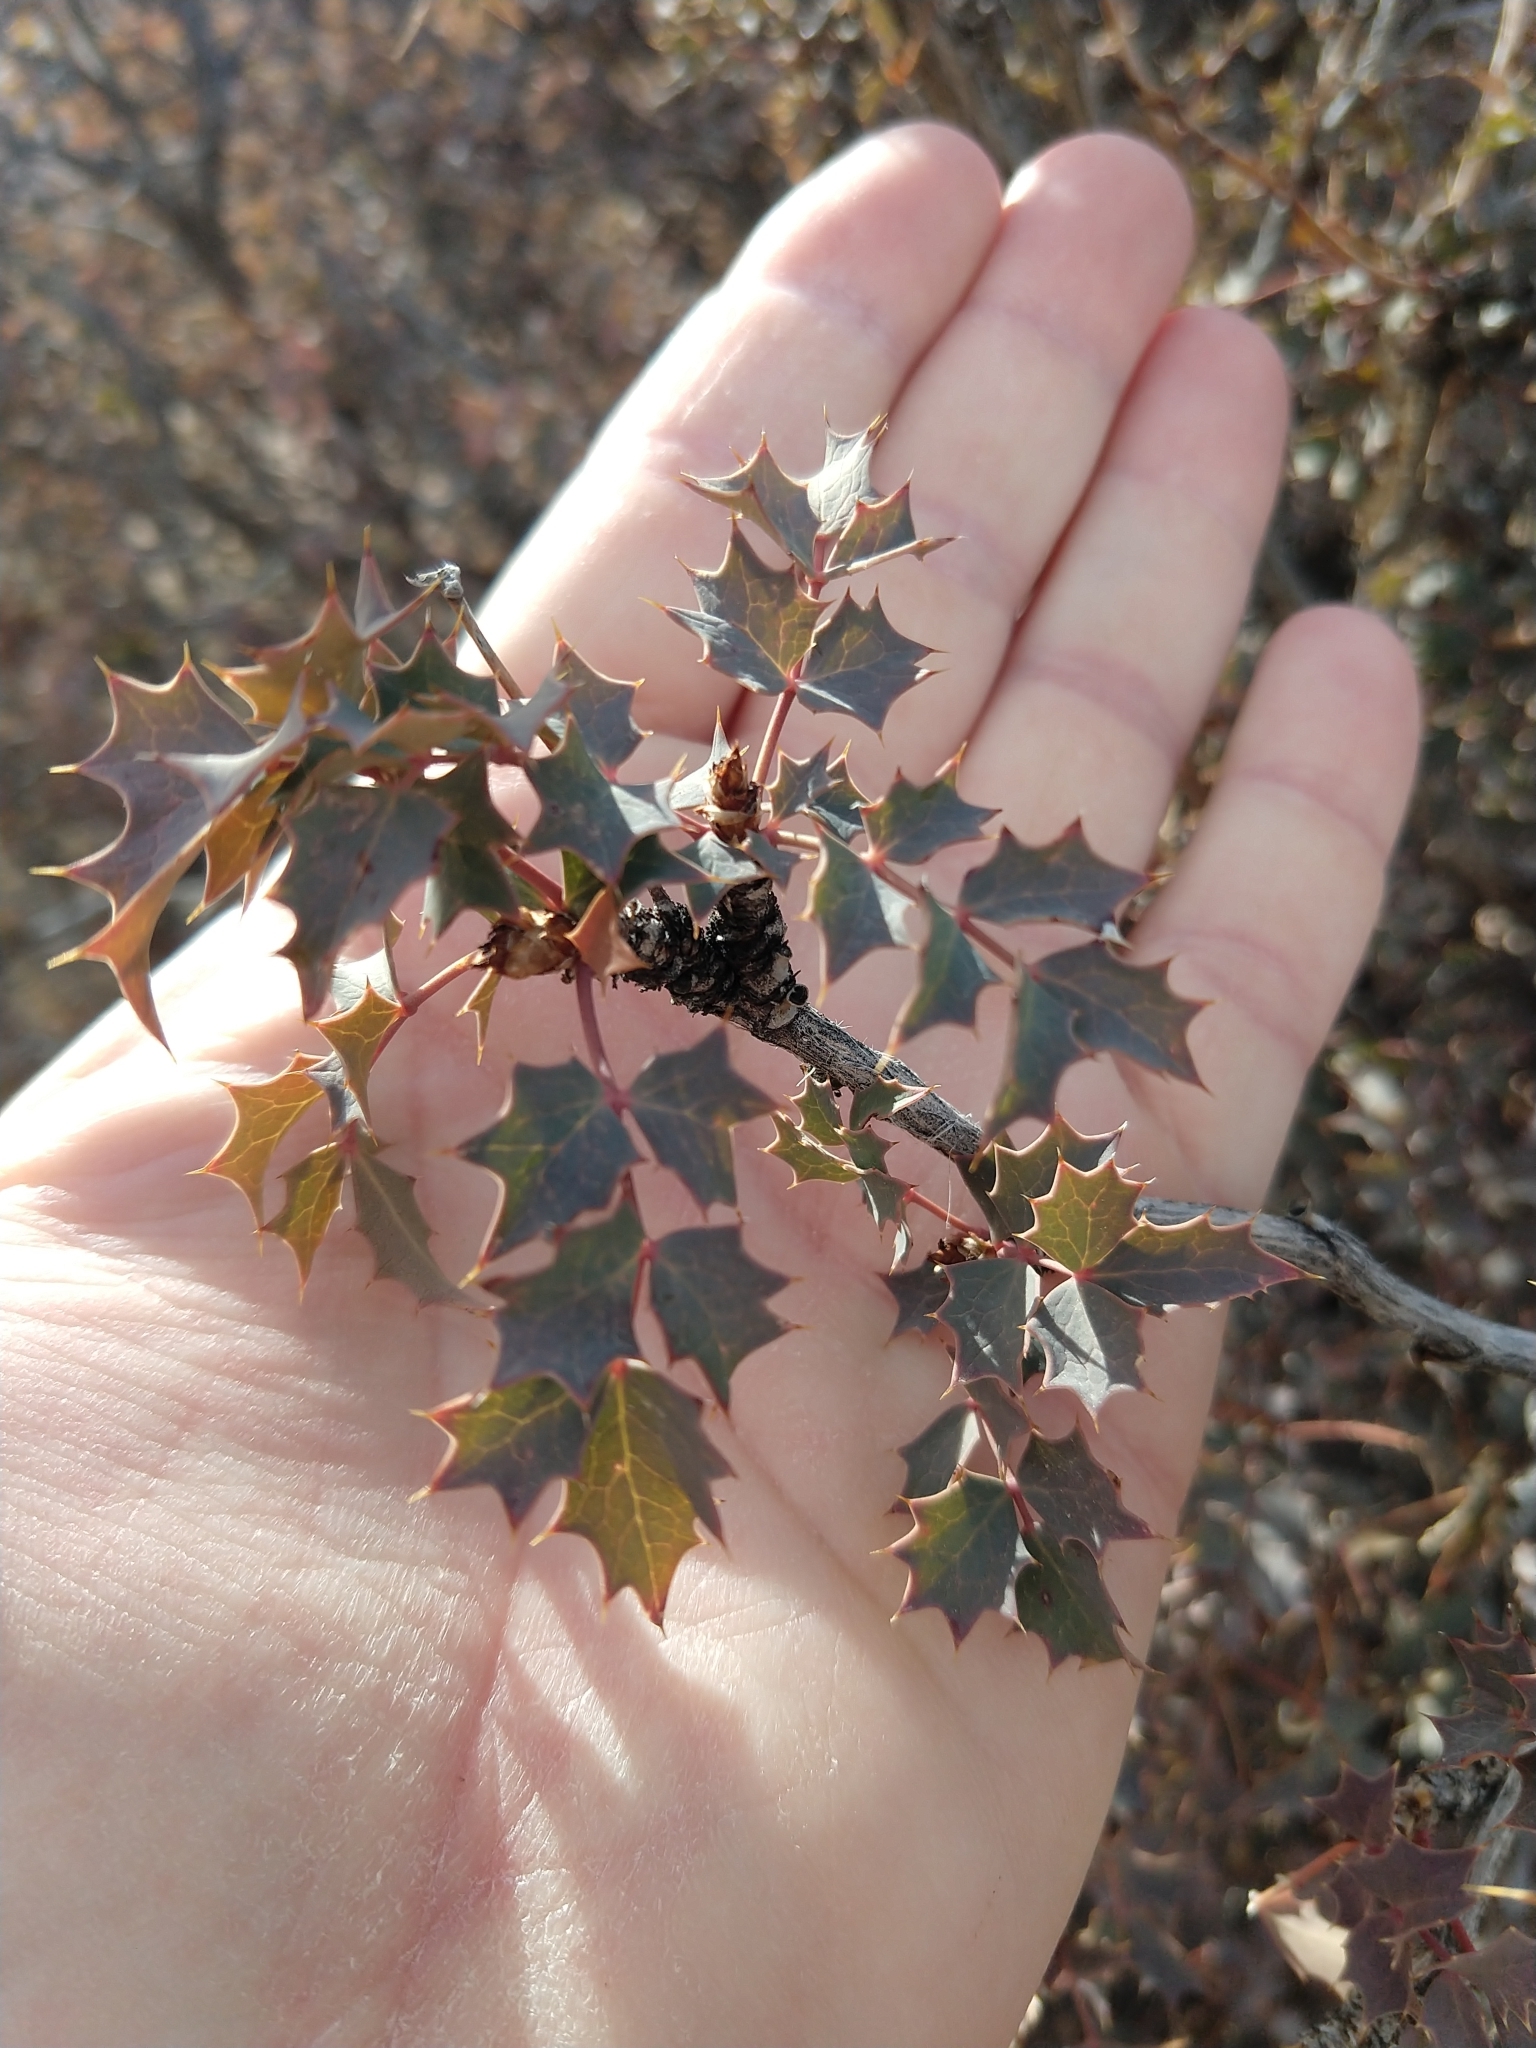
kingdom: Plantae
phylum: Tracheophyta
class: Magnoliopsida
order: Ranunculales
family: Berberidaceae
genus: Alloberberis
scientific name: Alloberberis fremontii
